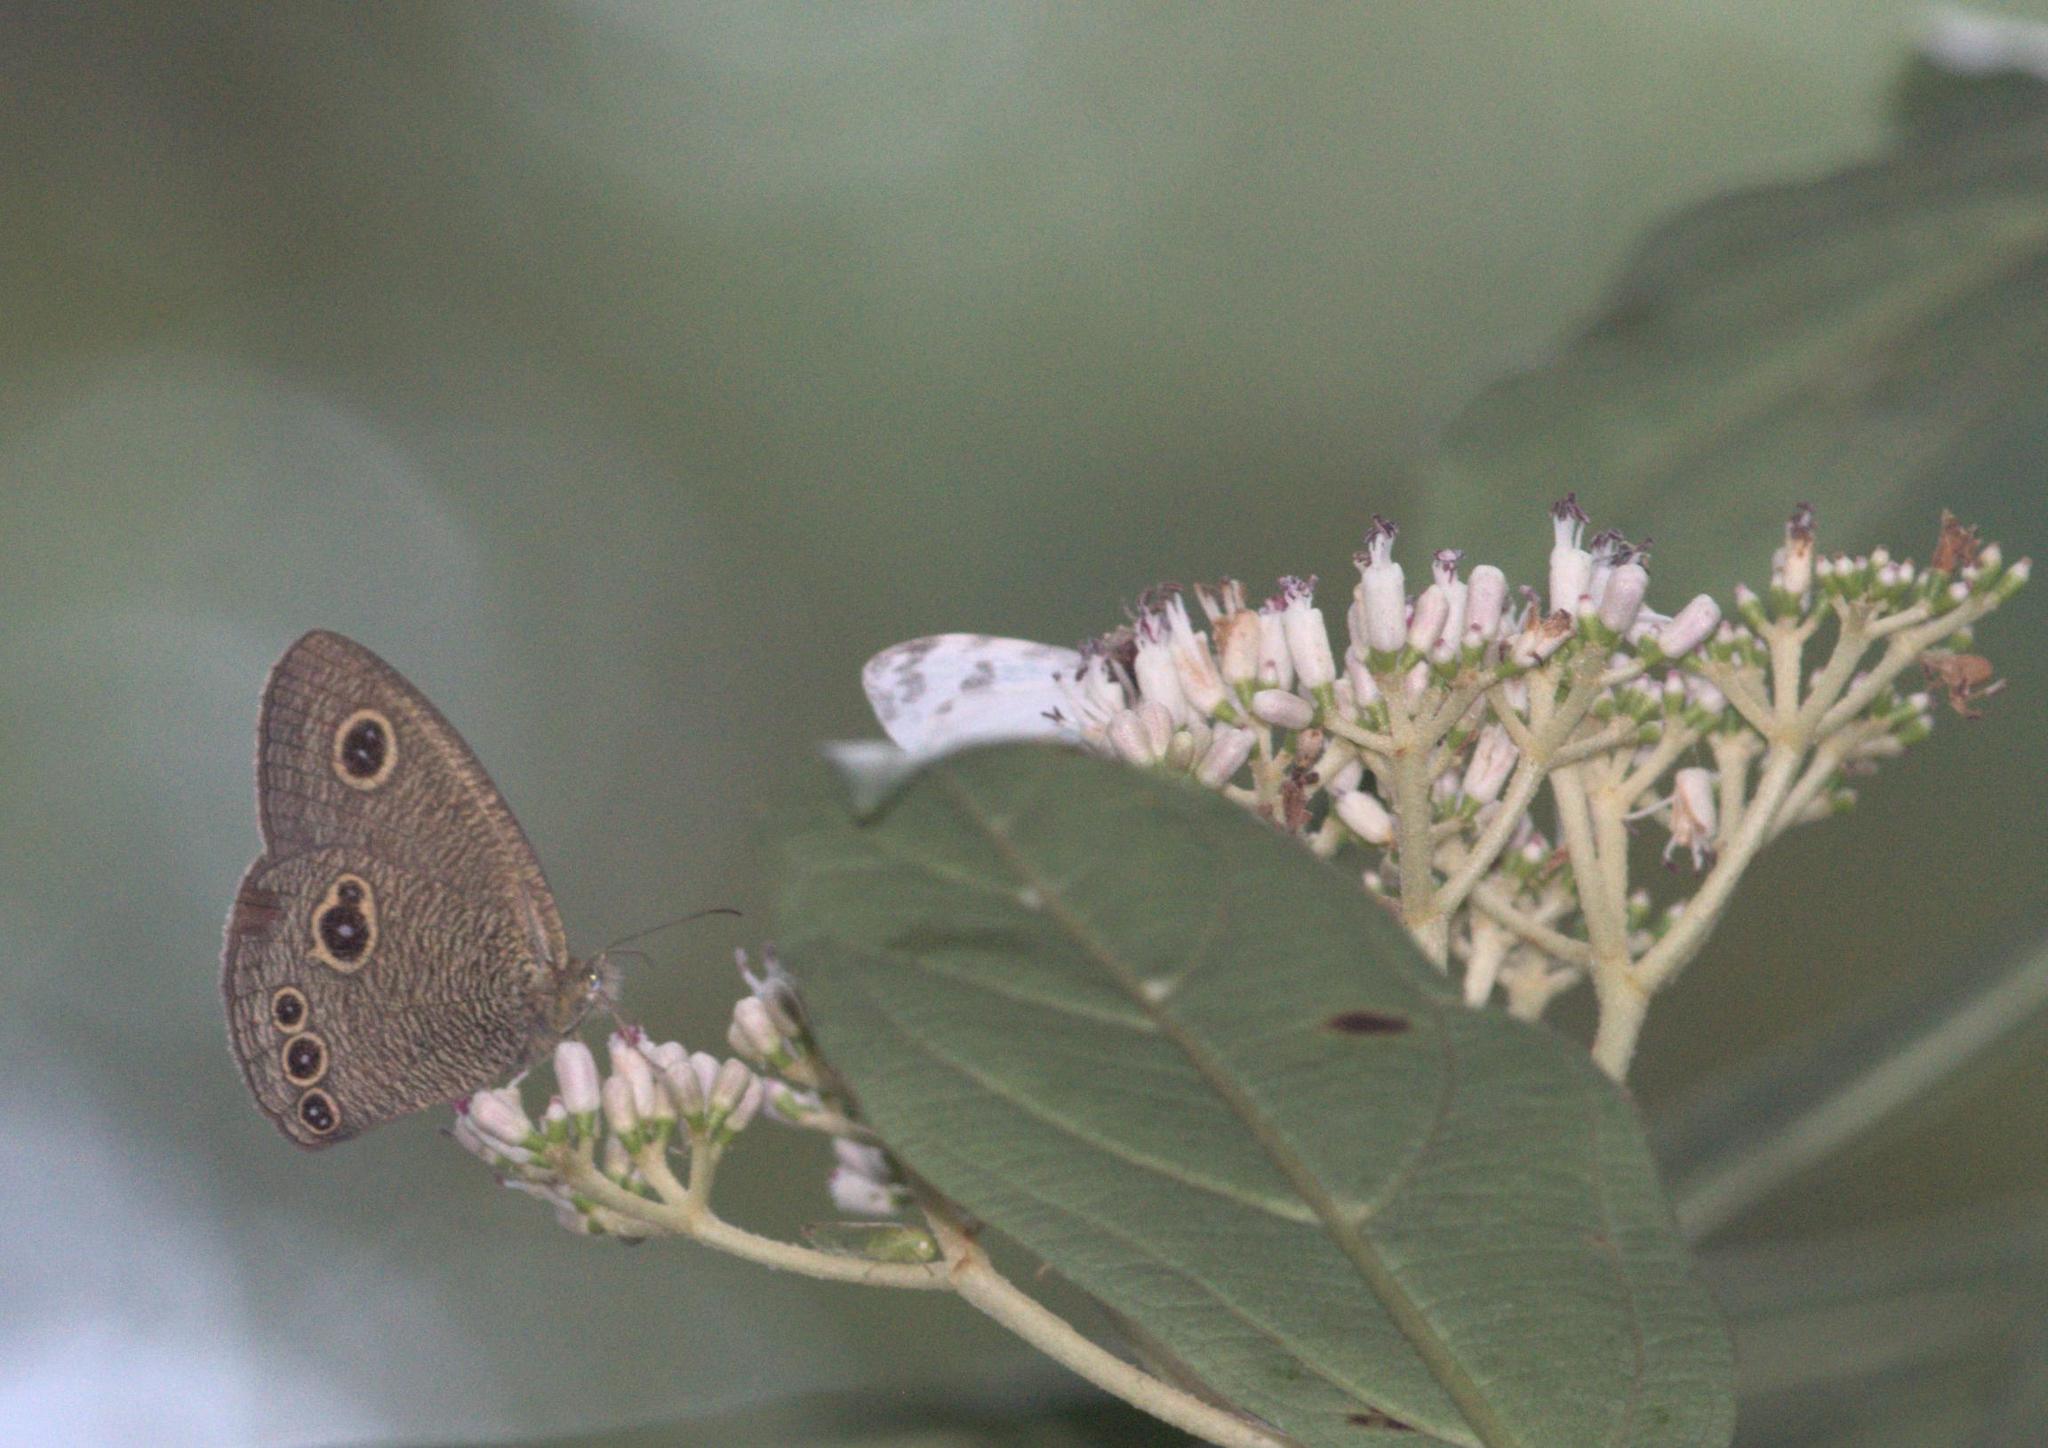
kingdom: Animalia
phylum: Arthropoda
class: Insecta
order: Lepidoptera
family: Nymphalidae
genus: Ypthima
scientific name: Ypthima nikaea
